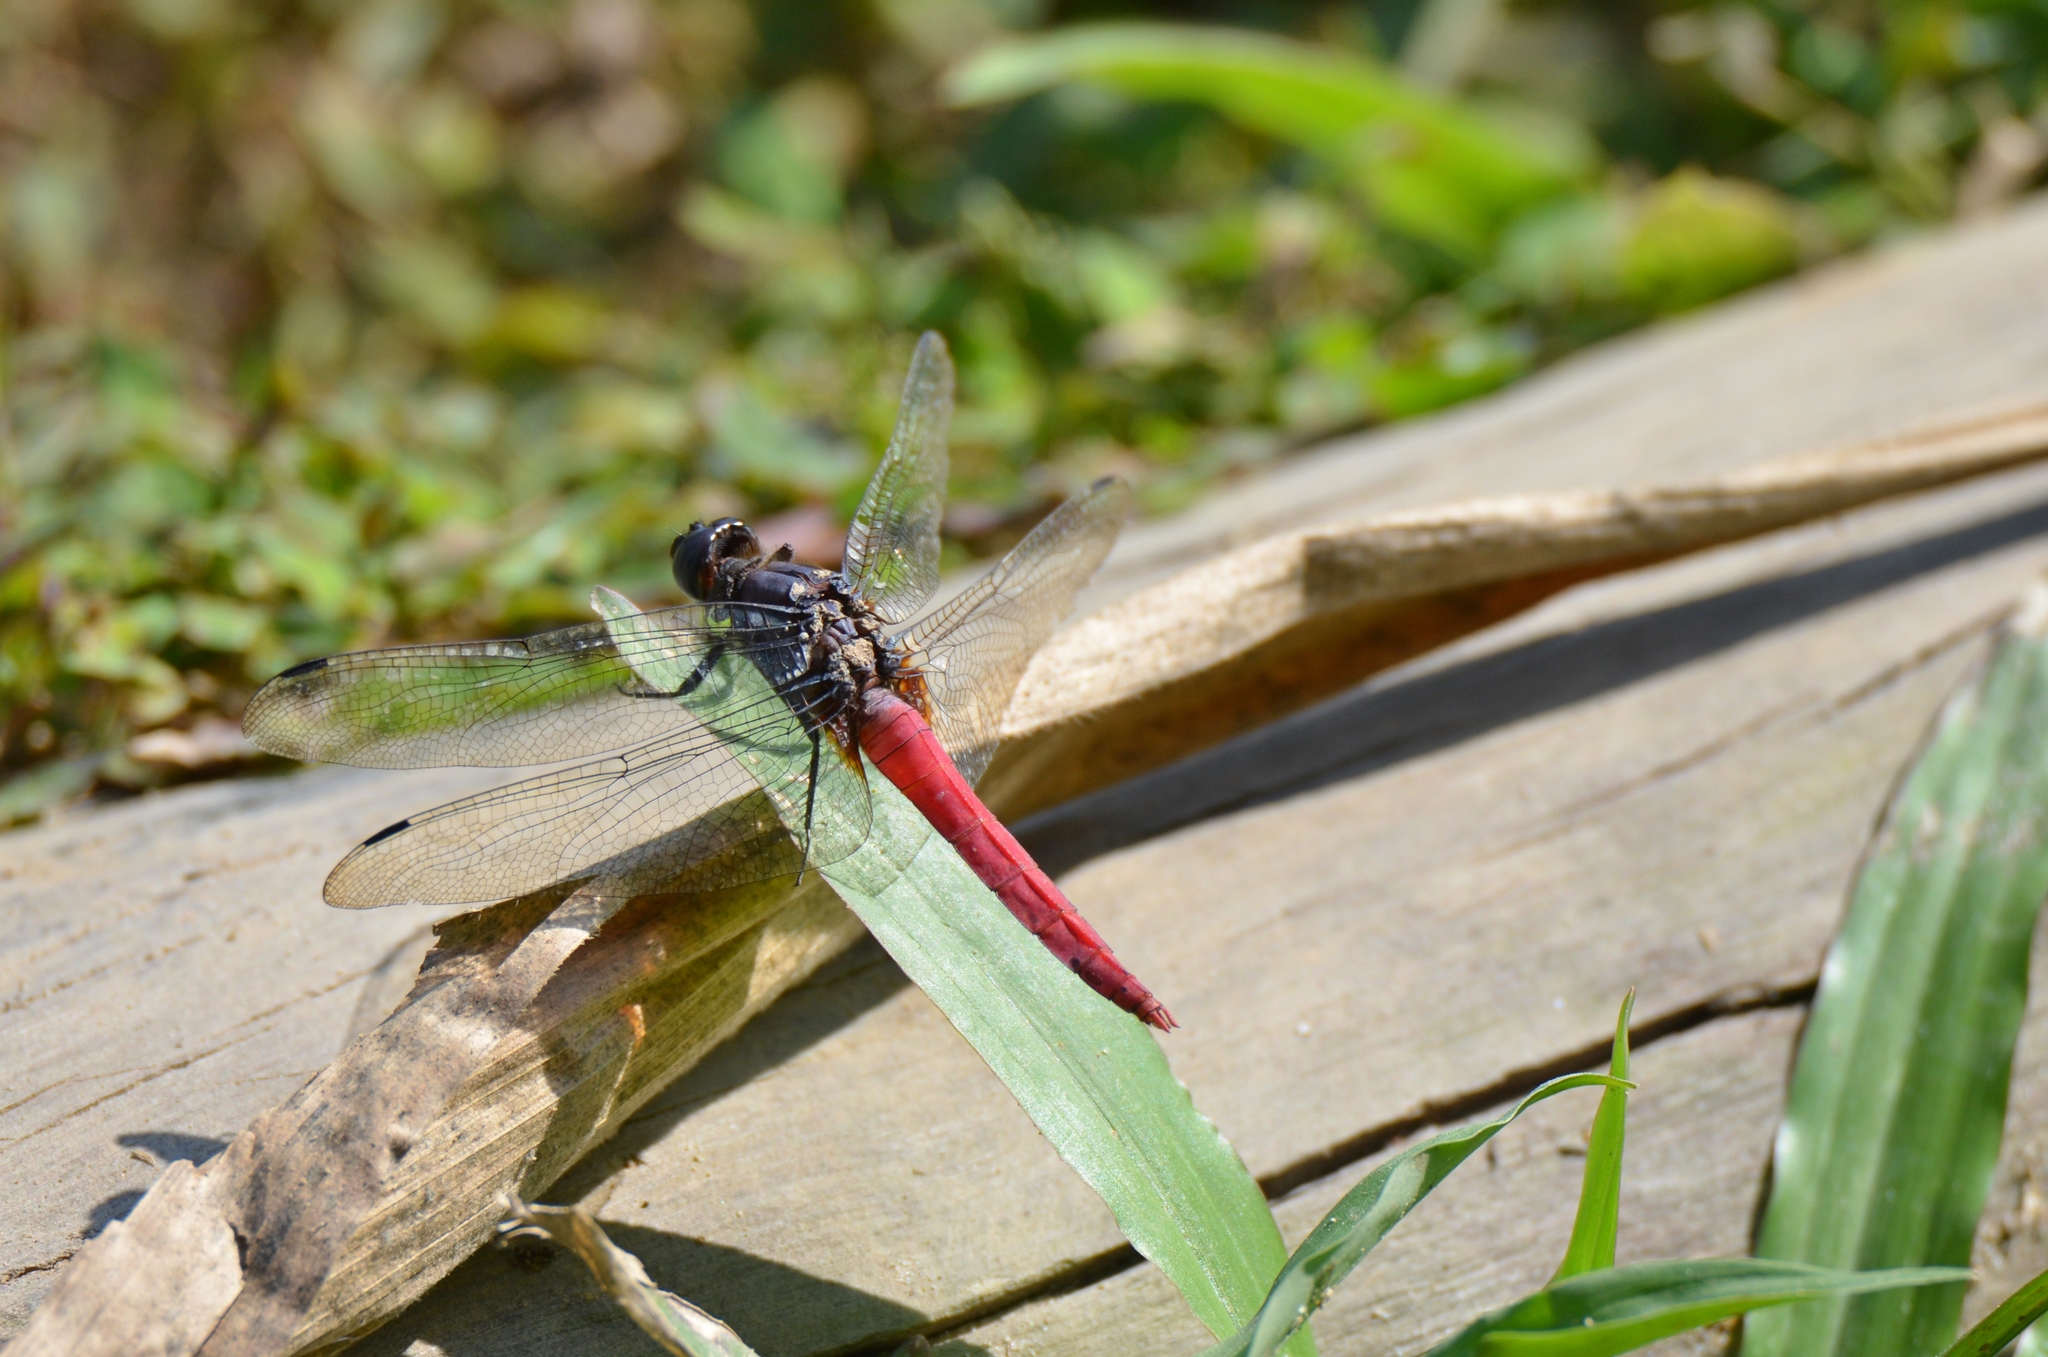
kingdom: Animalia
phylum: Arthropoda
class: Insecta
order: Odonata
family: Libellulidae
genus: Orthetrum
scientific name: Orthetrum pruinosum
